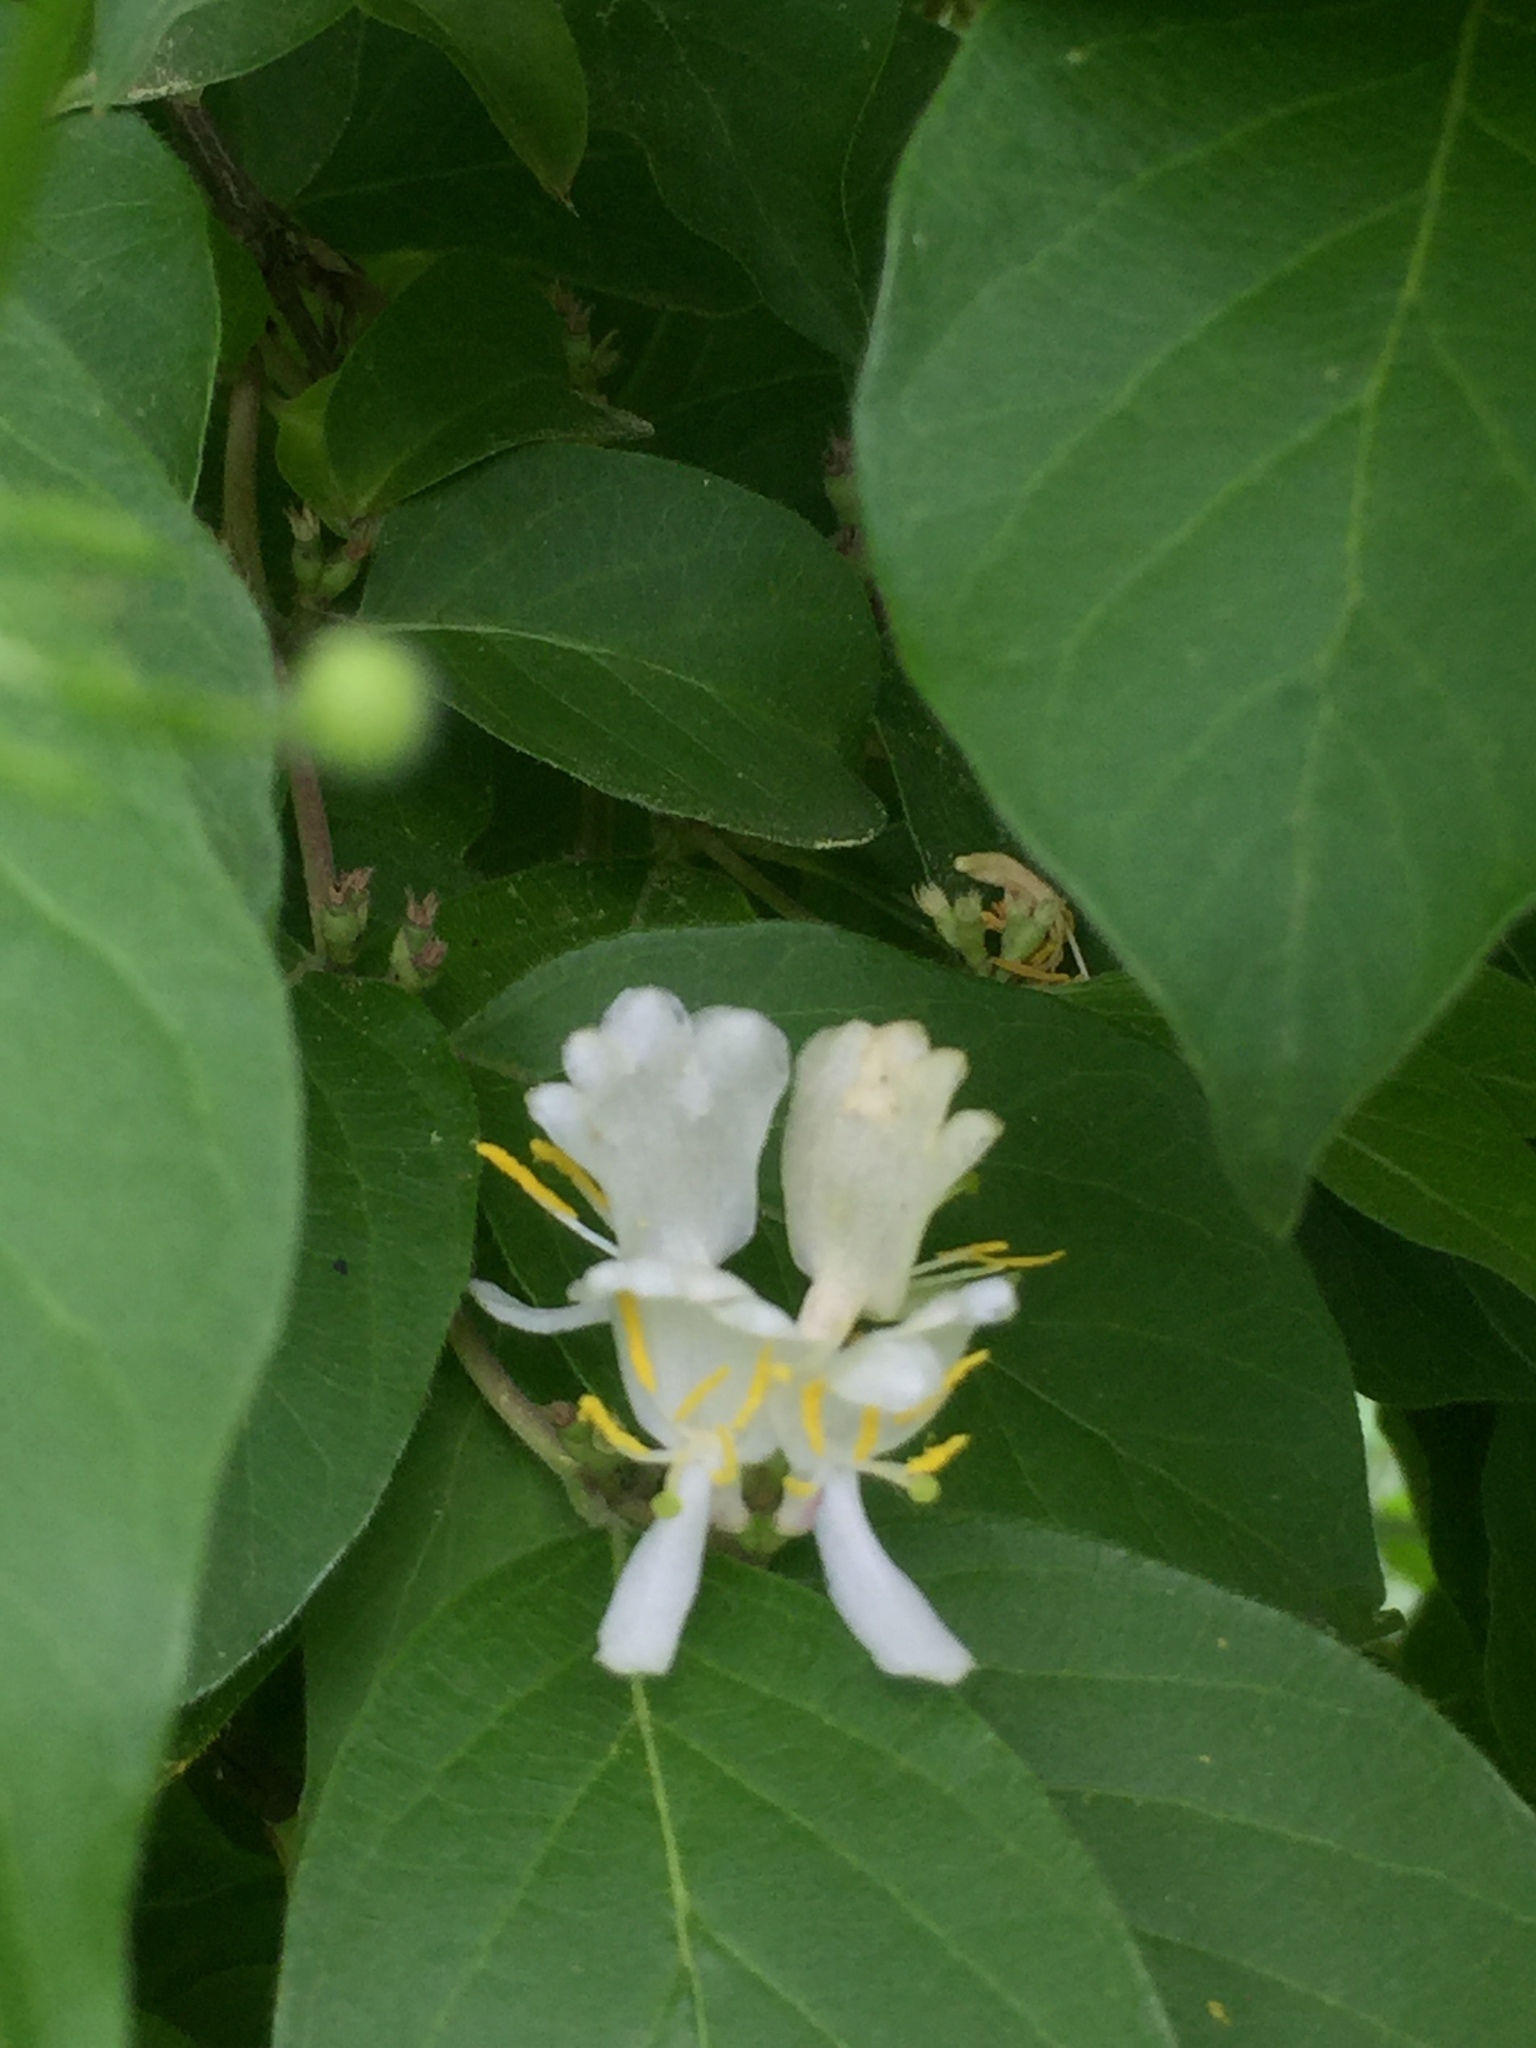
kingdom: Plantae
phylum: Tracheophyta
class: Magnoliopsida
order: Dipsacales
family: Caprifoliaceae
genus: Lonicera
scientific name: Lonicera maackii
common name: Amur honeysuckle
